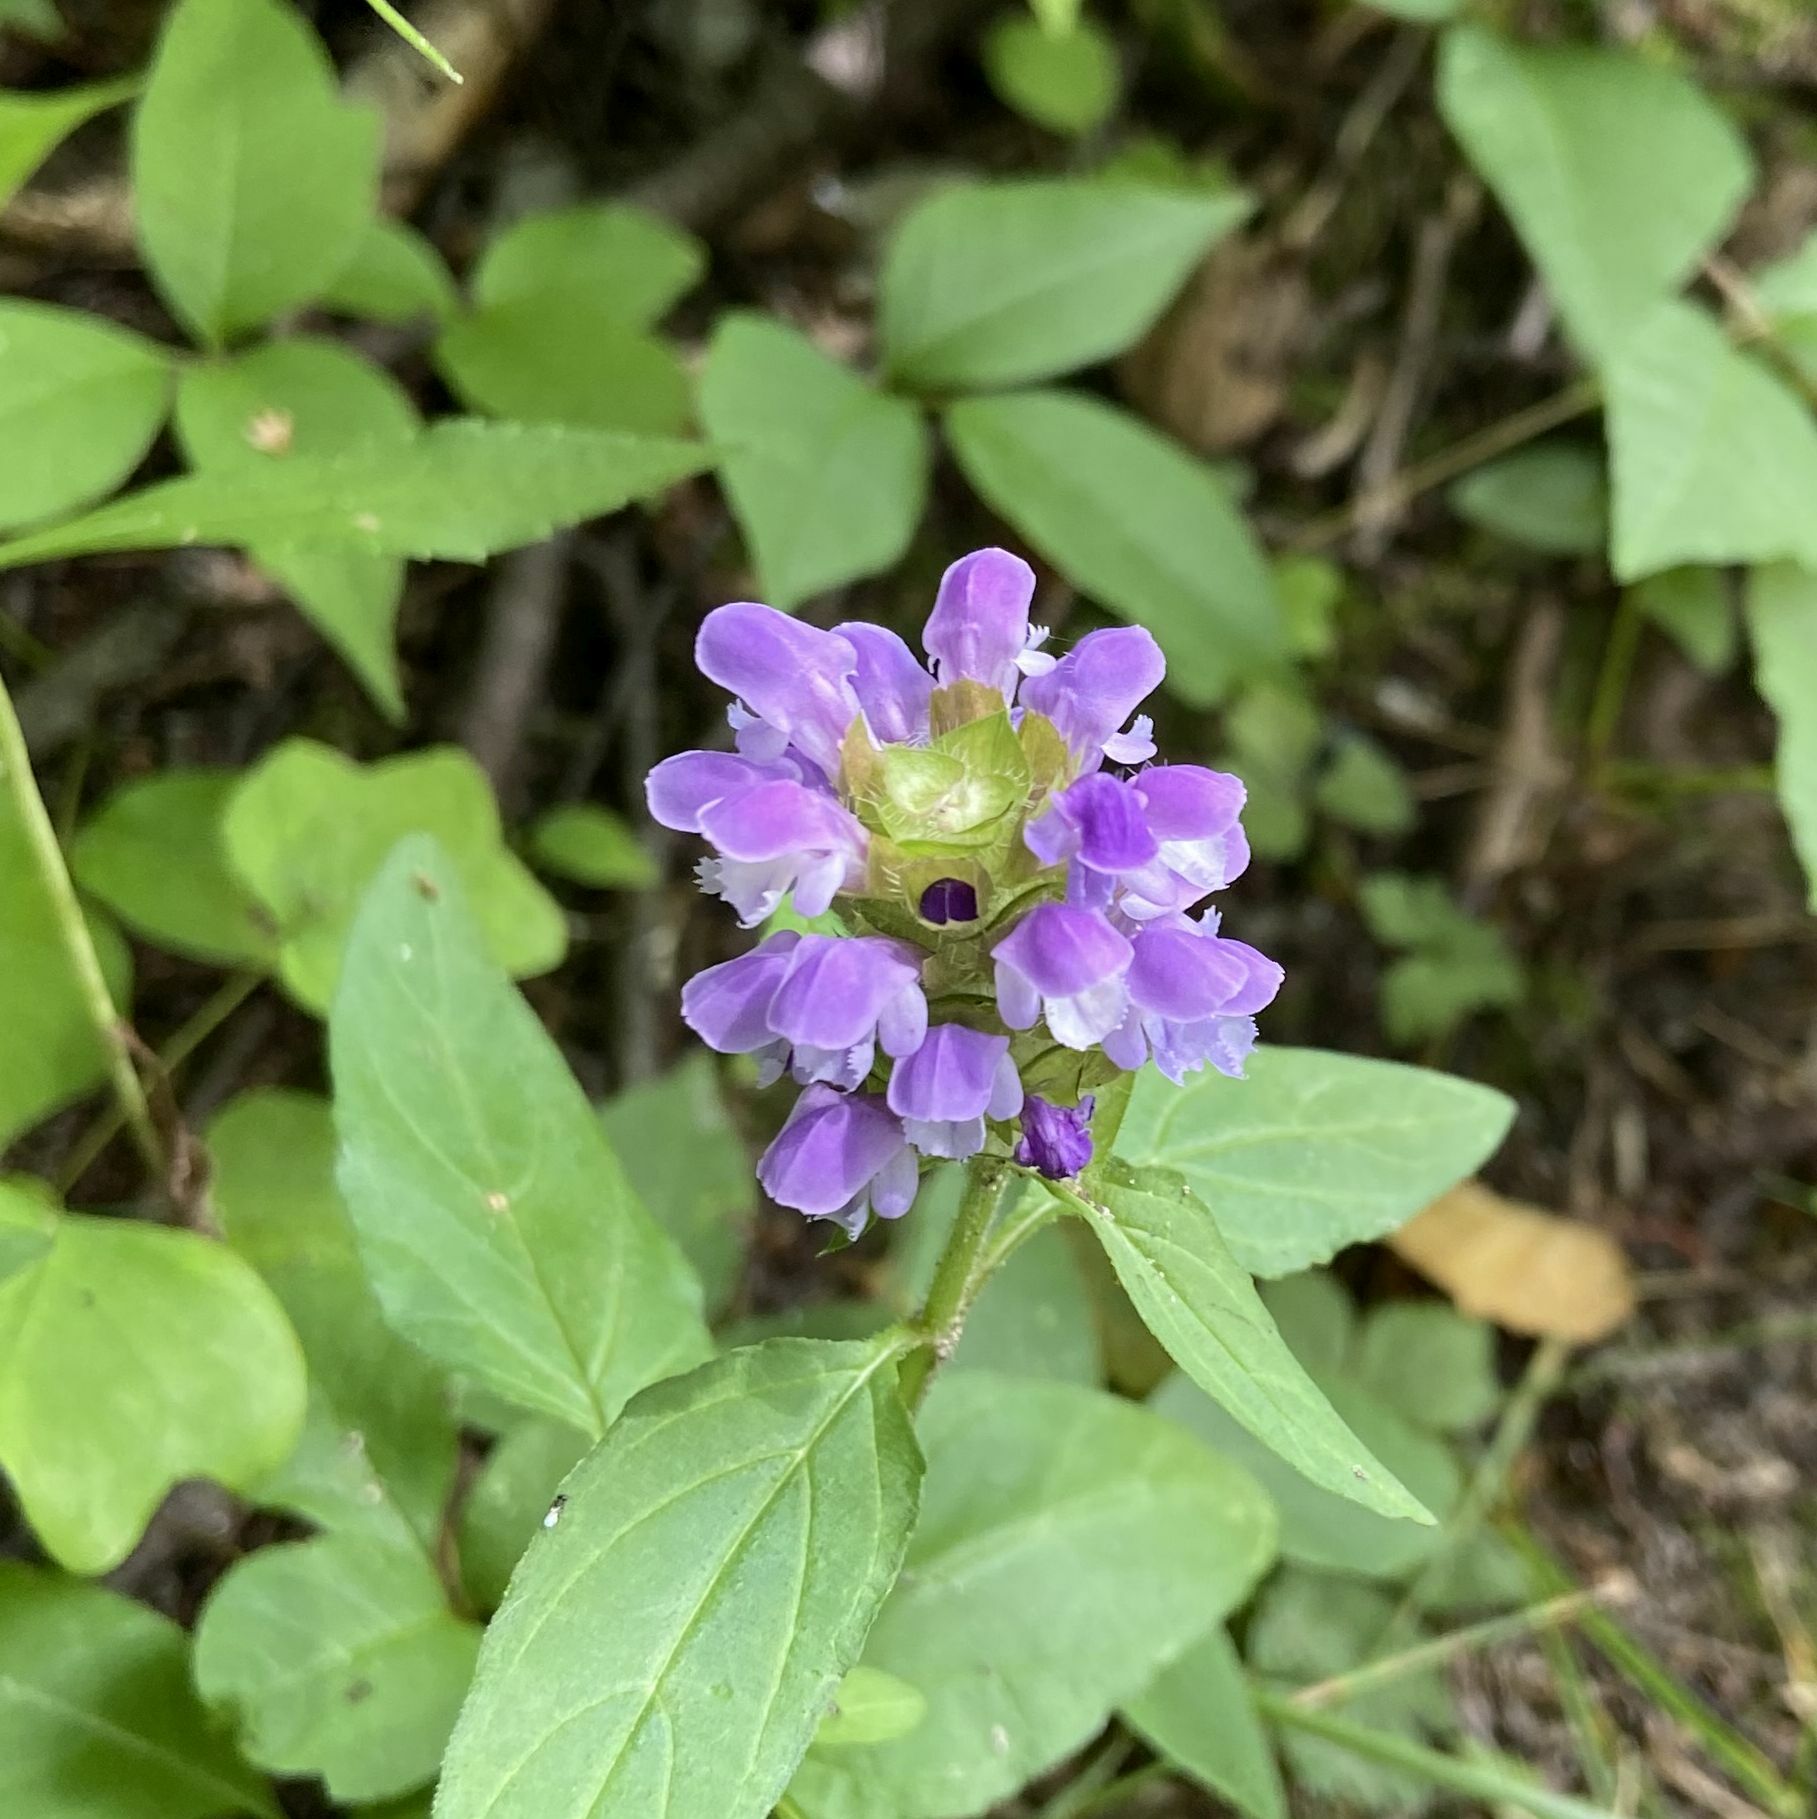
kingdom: Plantae
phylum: Tracheophyta
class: Magnoliopsida
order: Lamiales
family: Lamiaceae
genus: Prunella
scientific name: Prunella vulgaris
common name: Heal-all
